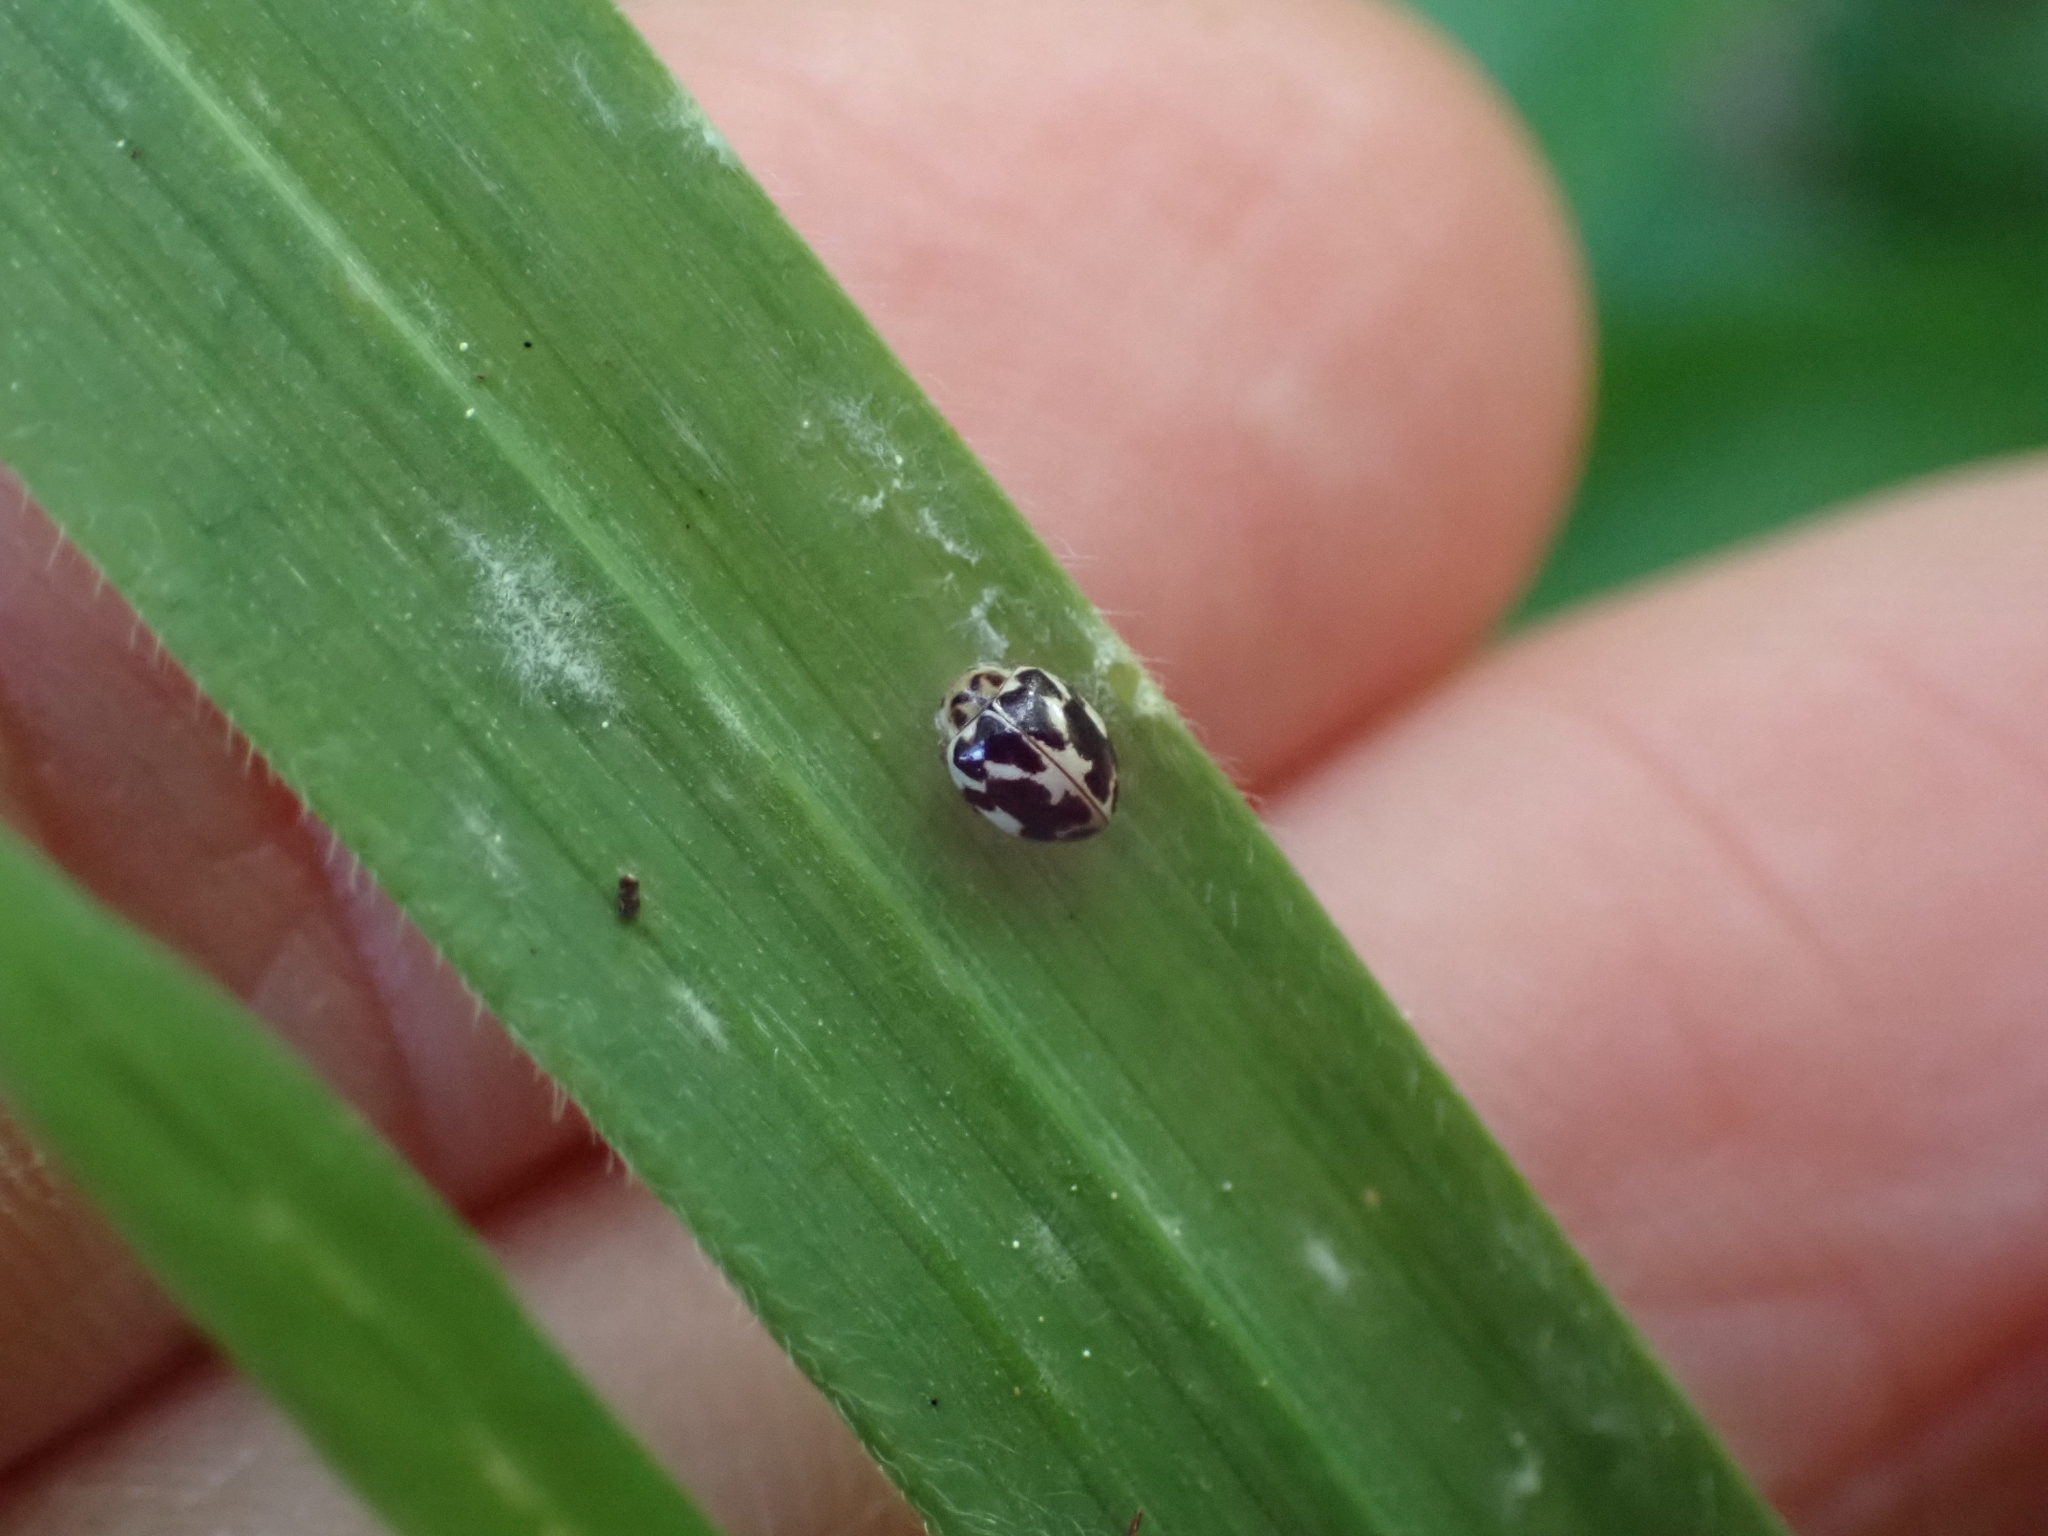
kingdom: Animalia
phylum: Arthropoda
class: Insecta
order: Coleoptera
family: Coccinellidae
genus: Psyllobora
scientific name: Psyllobora vigintimaculata
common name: Ladybird beetle
